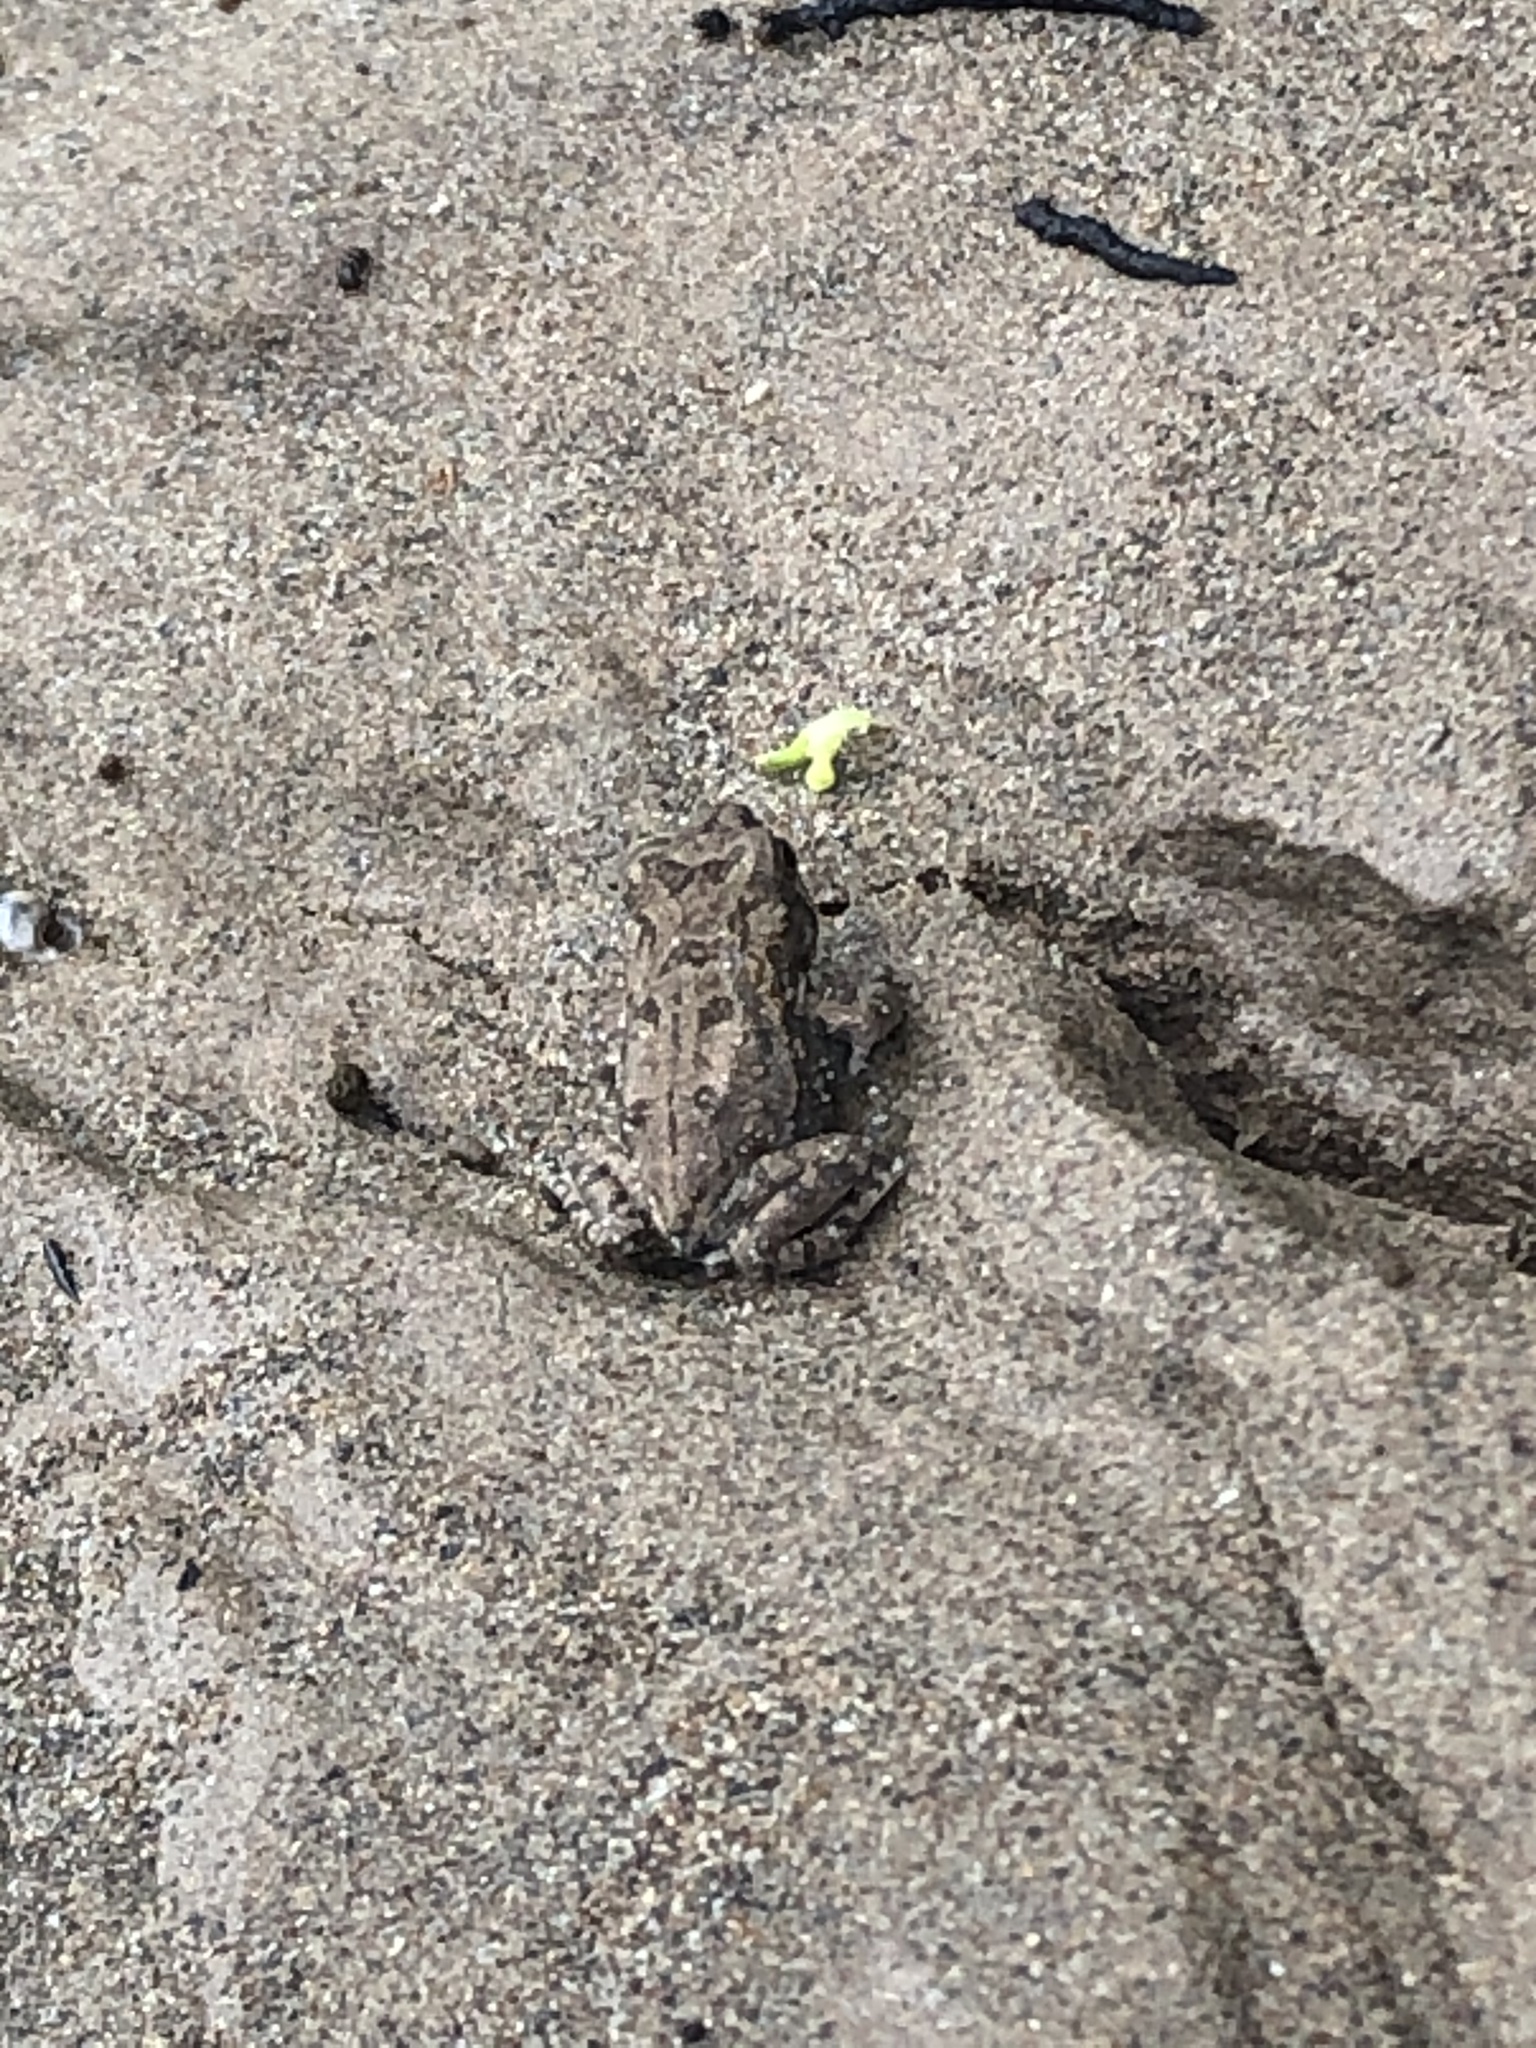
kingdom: Animalia
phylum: Chordata
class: Amphibia
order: Anura
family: Bufonidae
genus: Rhinella
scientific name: Rhinella marina
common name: Cane toad
